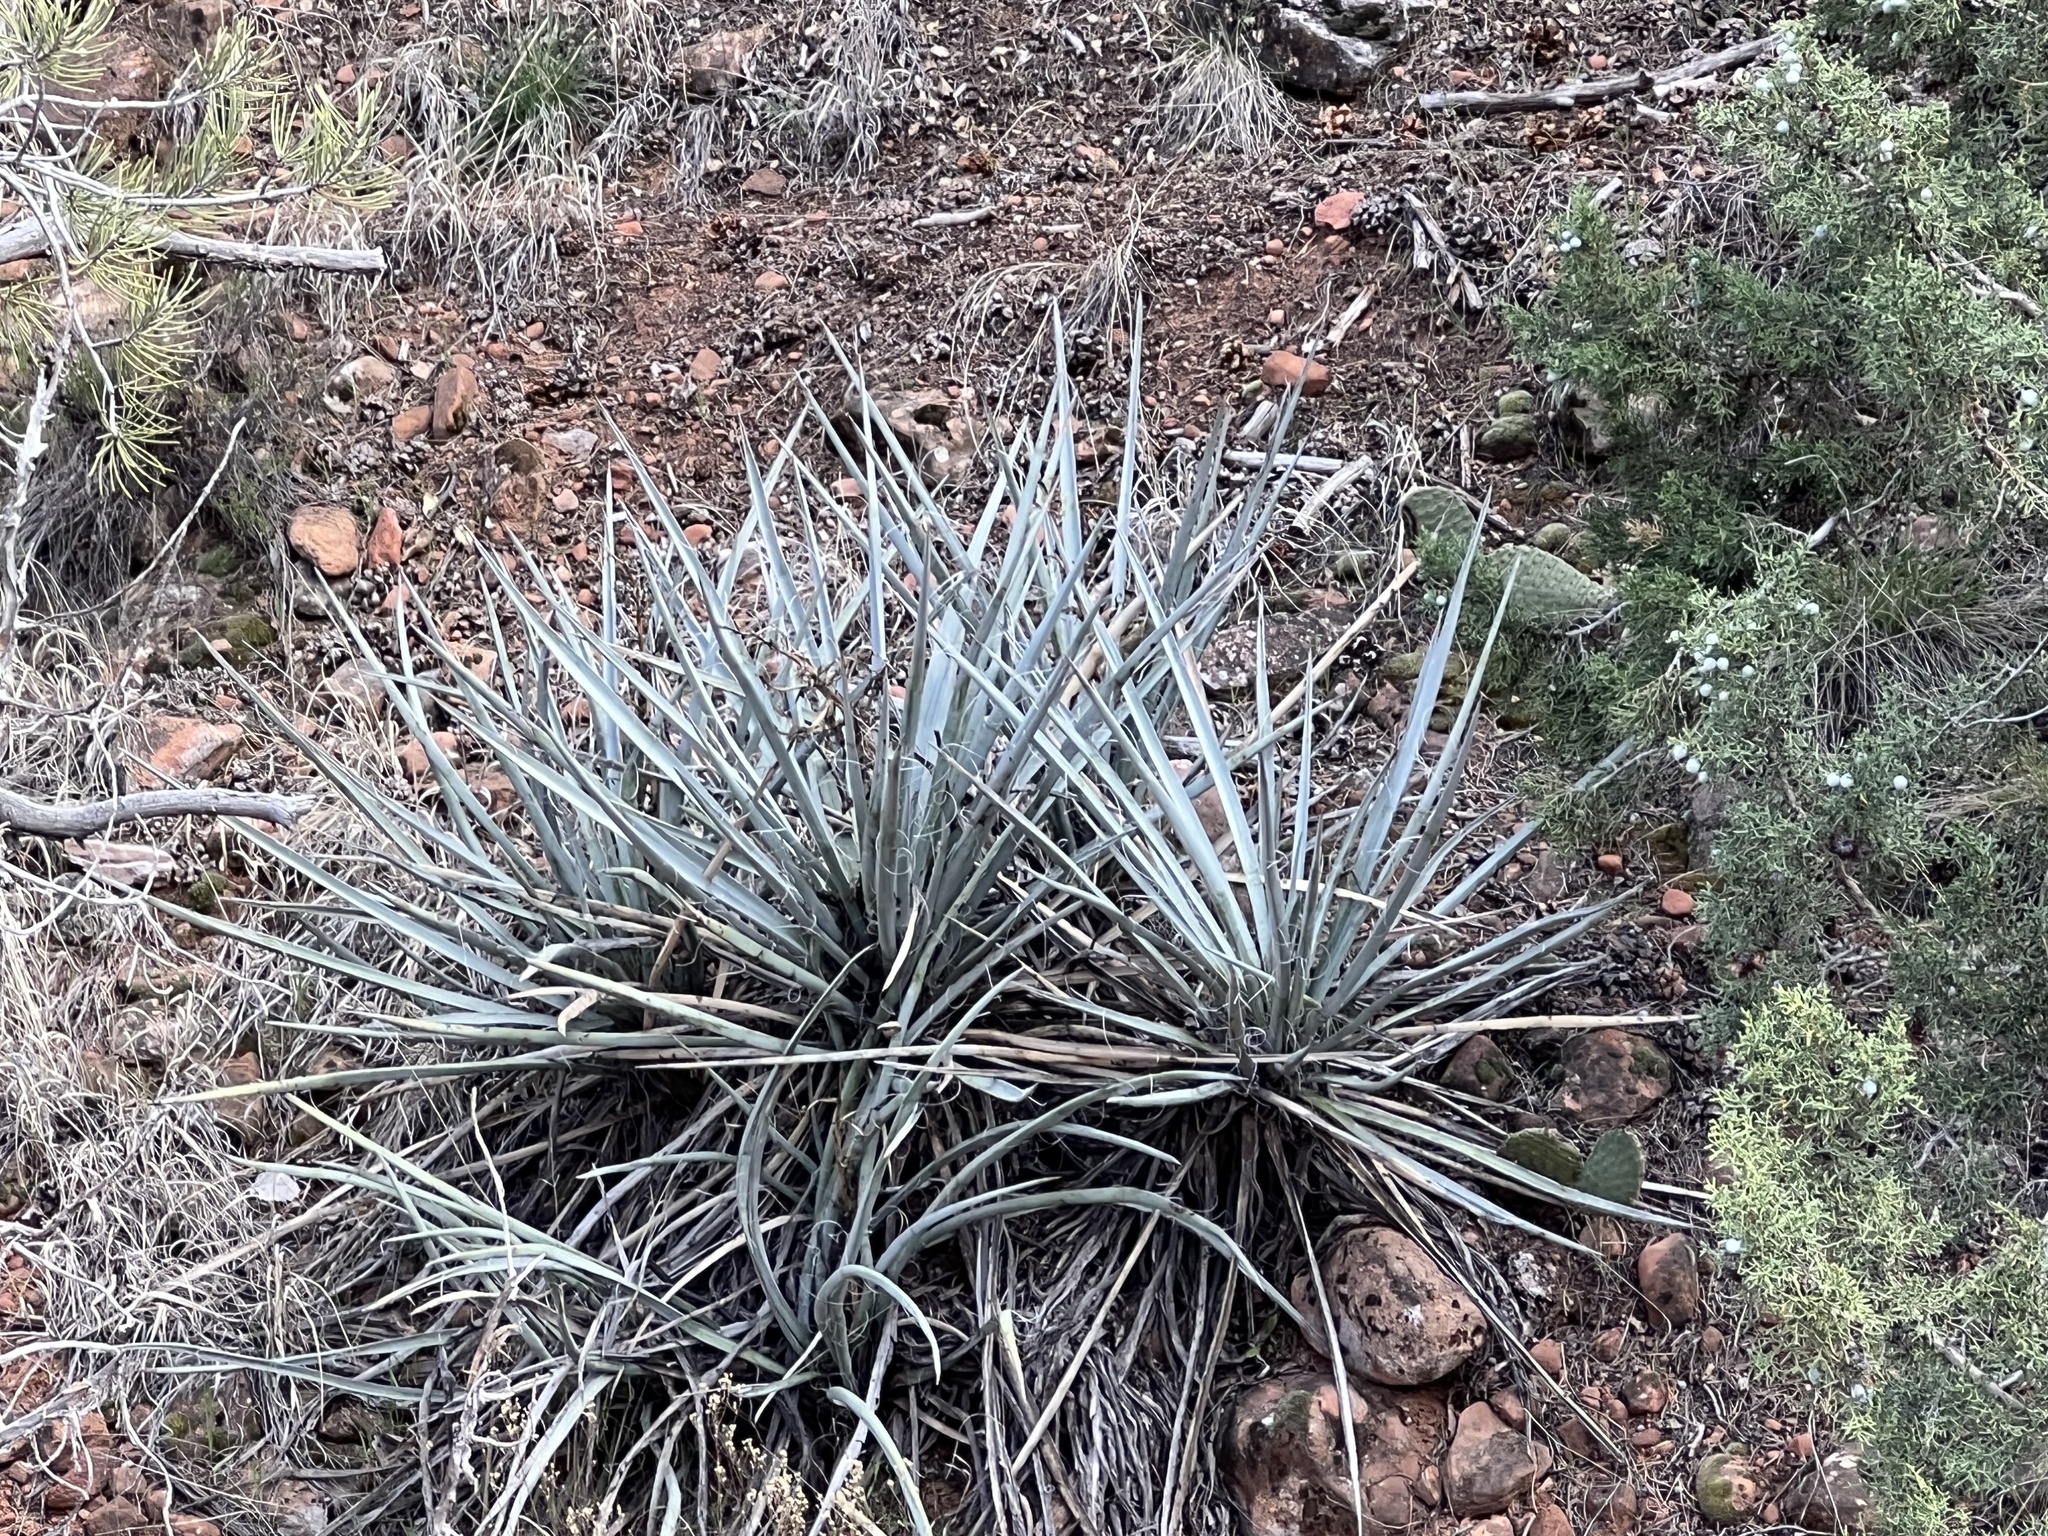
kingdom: Plantae
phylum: Tracheophyta
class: Liliopsida
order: Asparagales
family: Asparagaceae
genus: Yucca
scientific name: Yucca baccata
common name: Banana yucca
